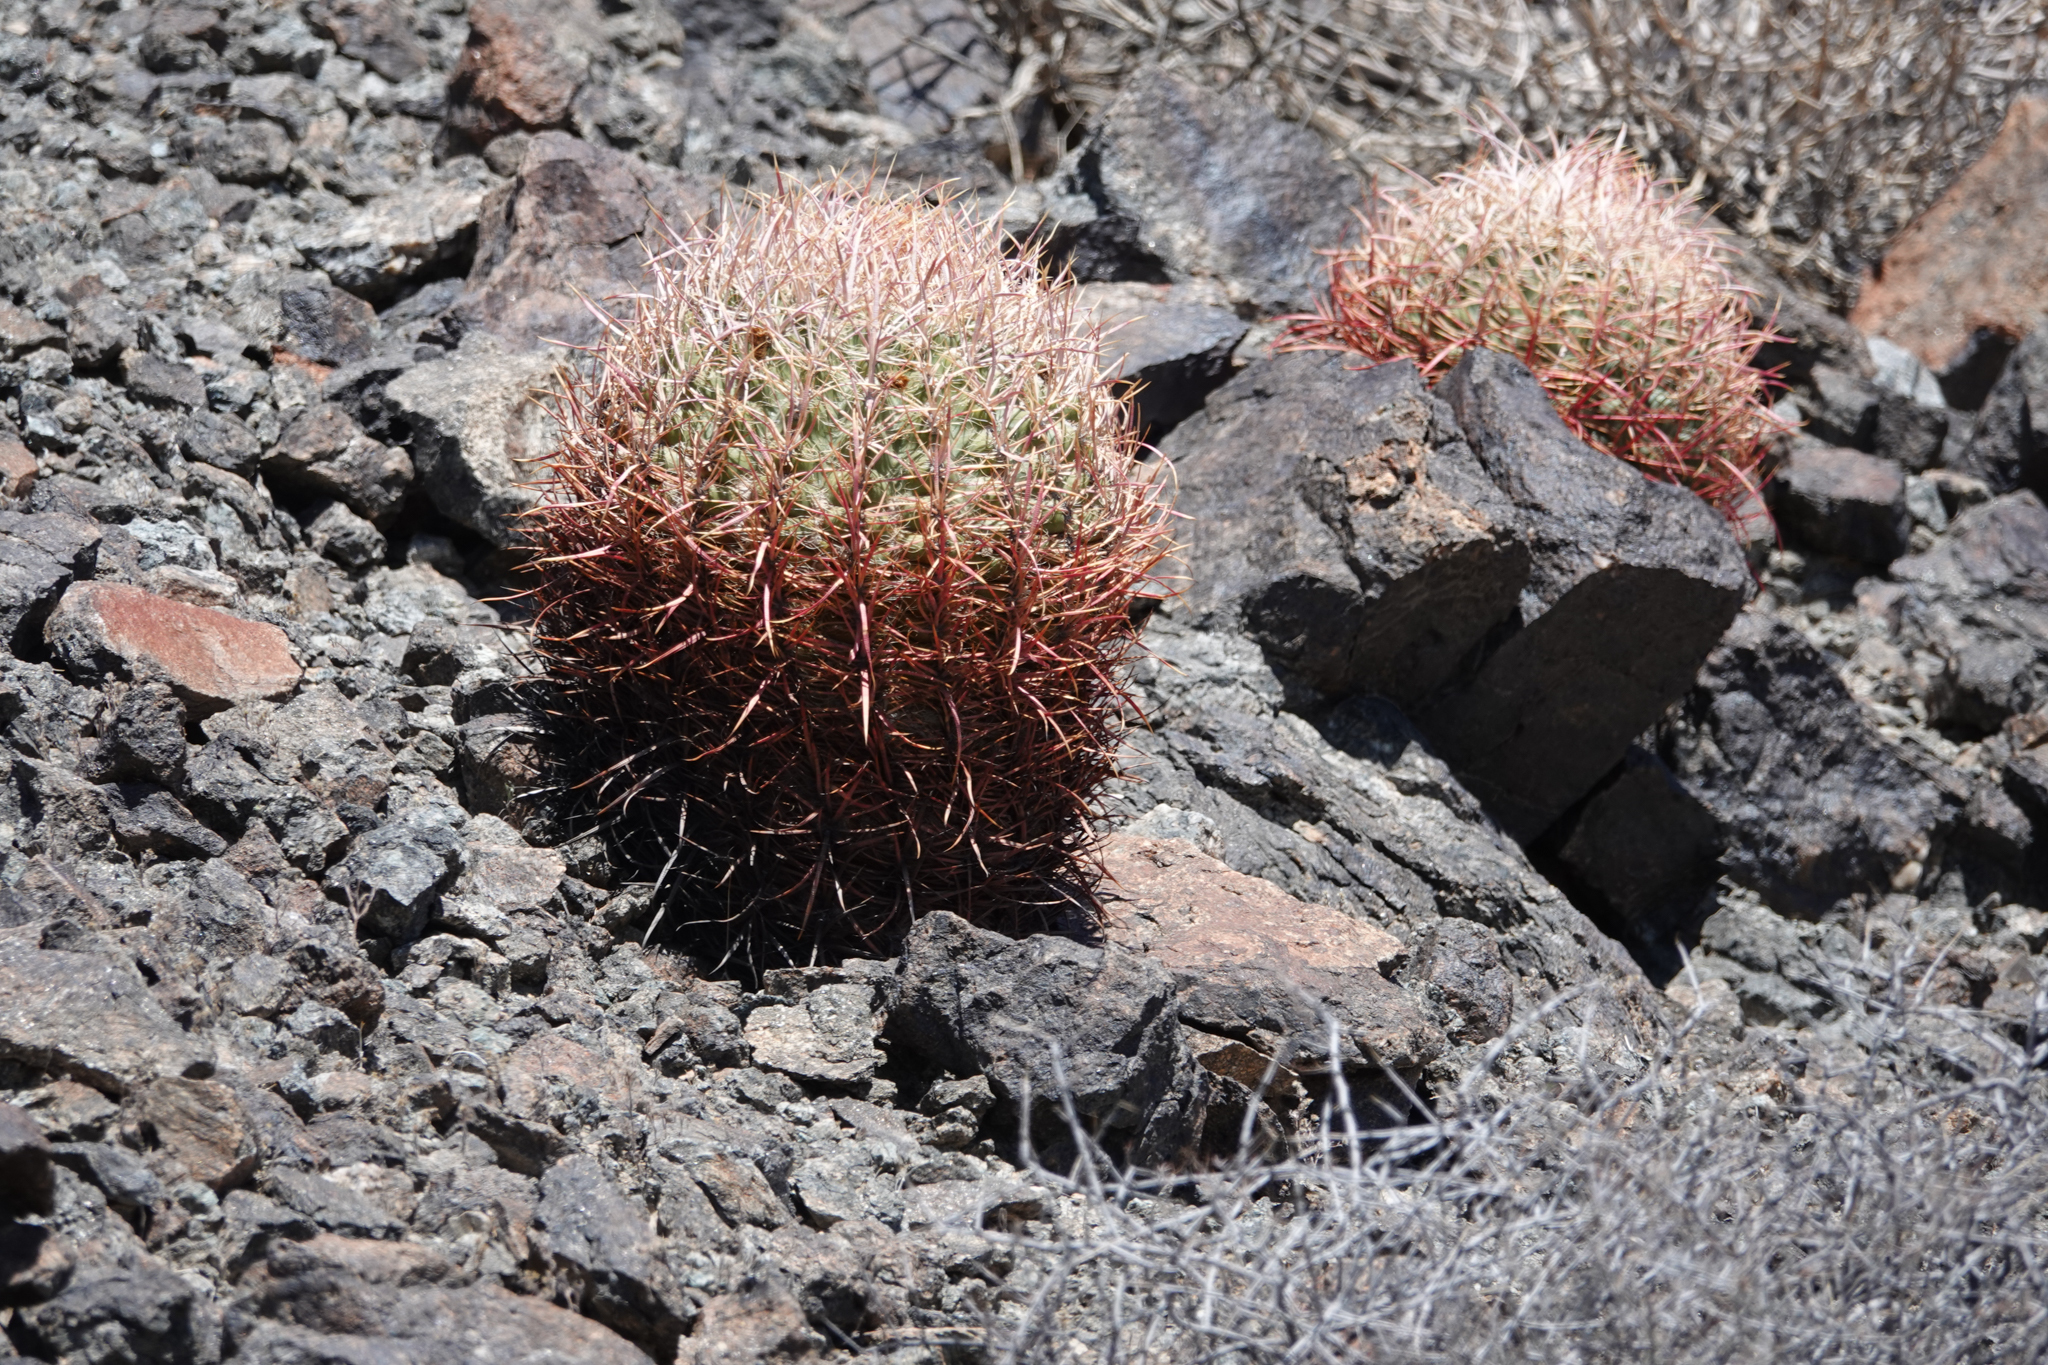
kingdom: Plantae
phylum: Tracheophyta
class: Magnoliopsida
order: Caryophyllales
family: Cactaceae
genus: Ferocactus
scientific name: Ferocactus cylindraceus
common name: California barrel cactus
